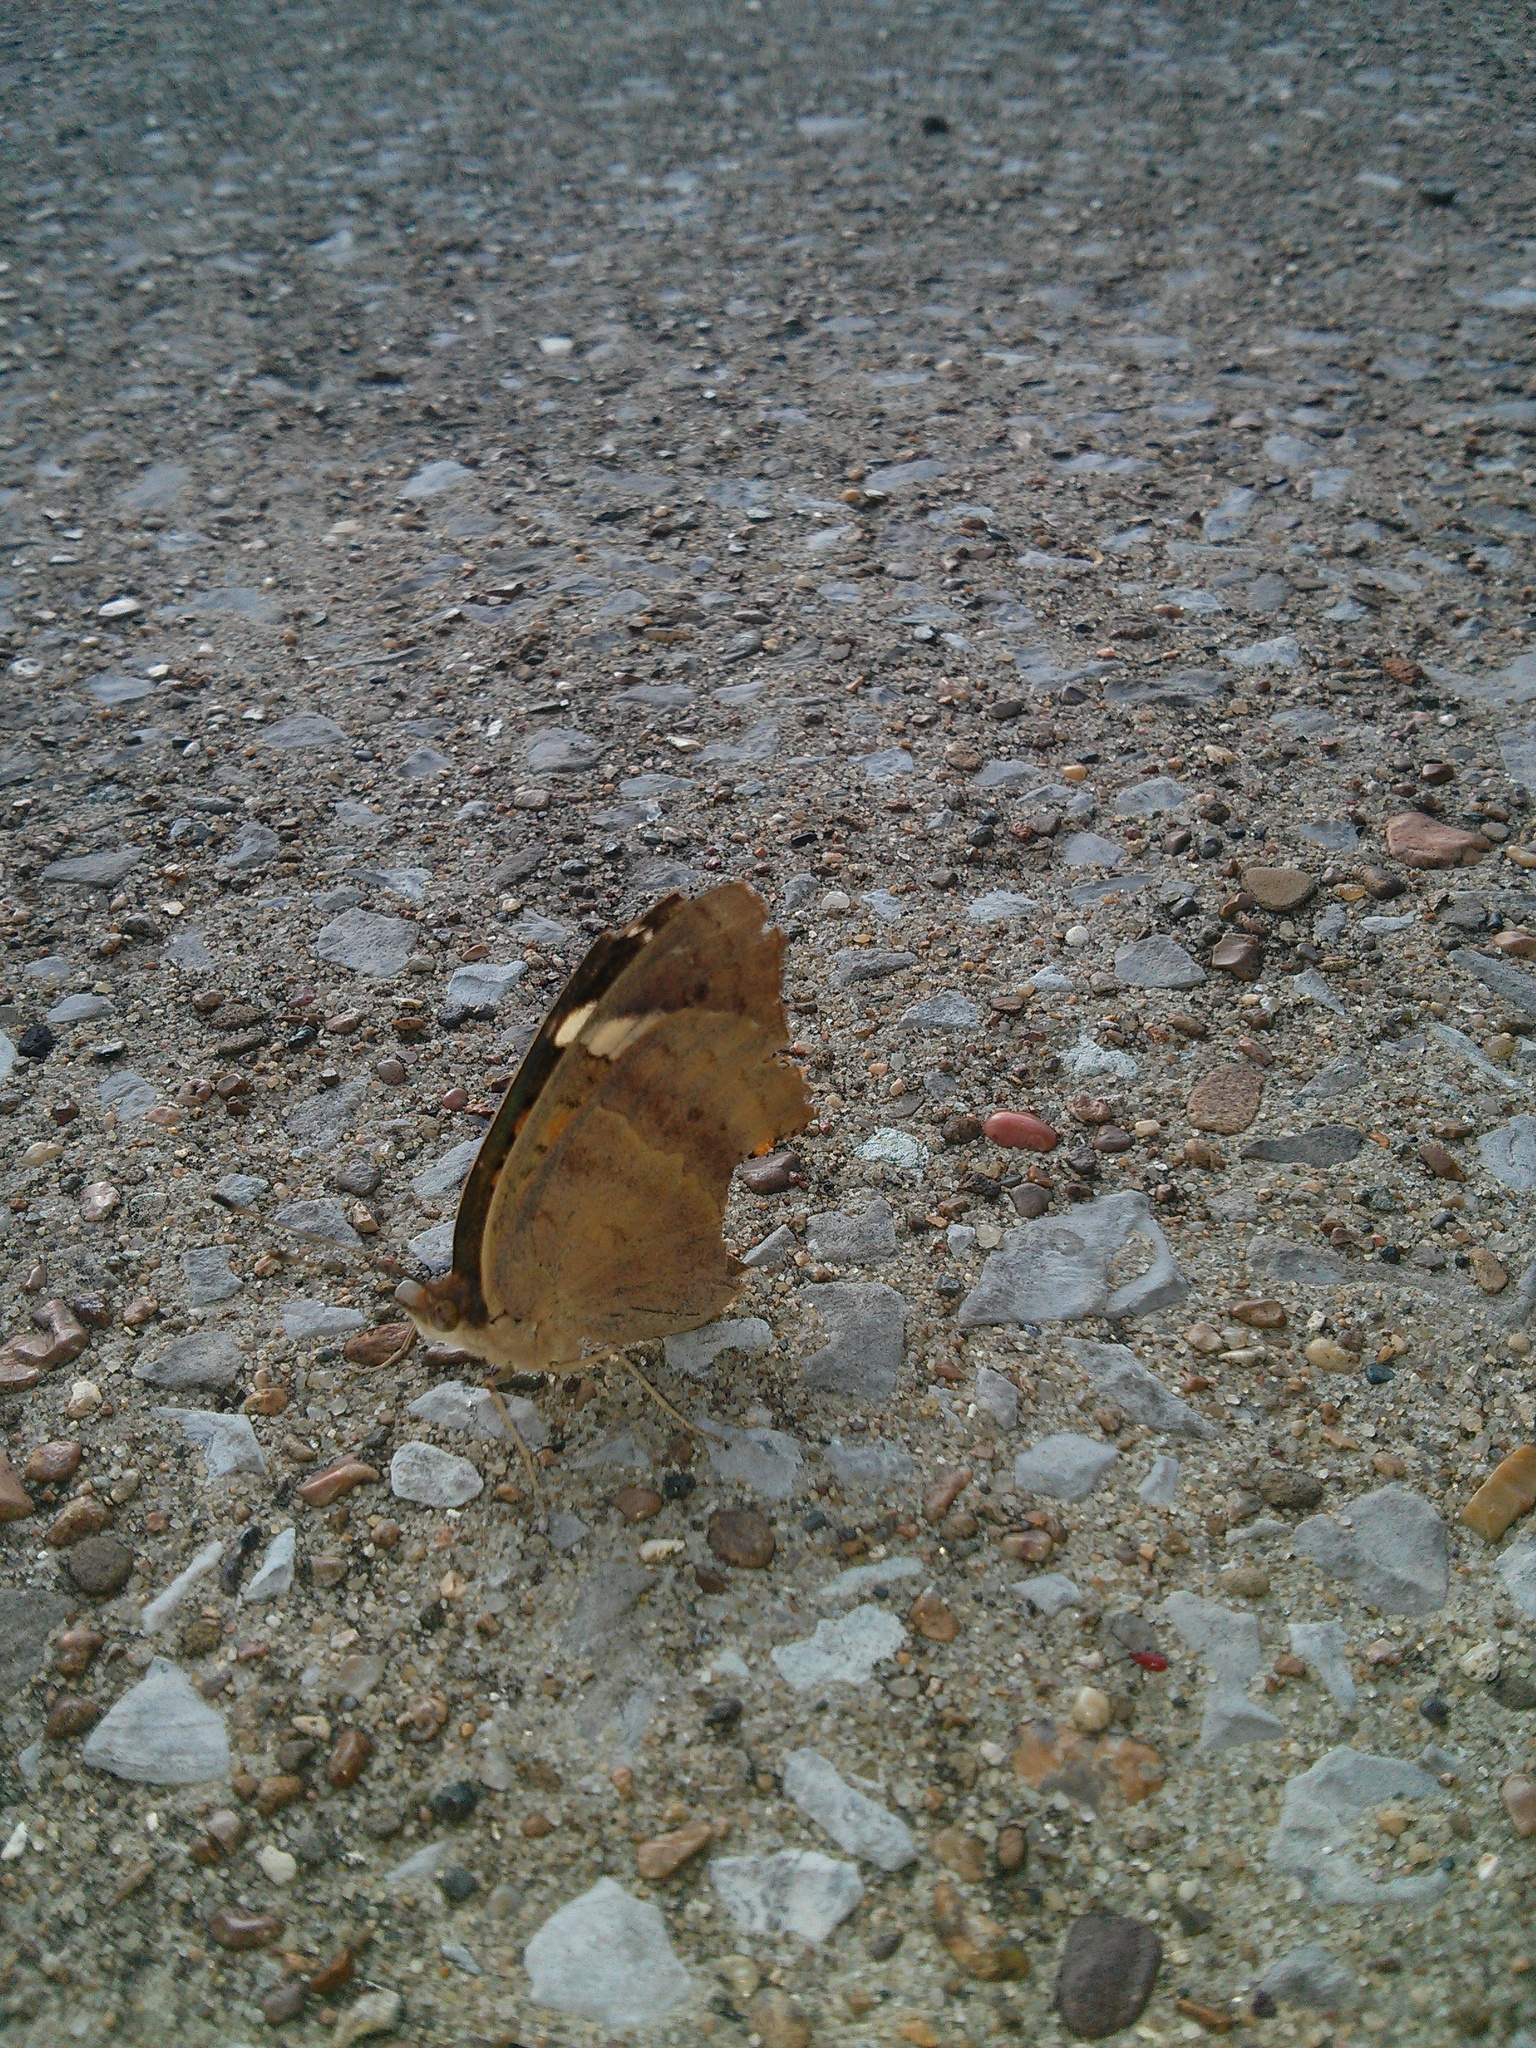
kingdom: Animalia
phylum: Arthropoda
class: Insecta
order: Lepidoptera
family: Nymphalidae
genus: Junonia
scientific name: Junonia coenia
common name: Common buckeye
